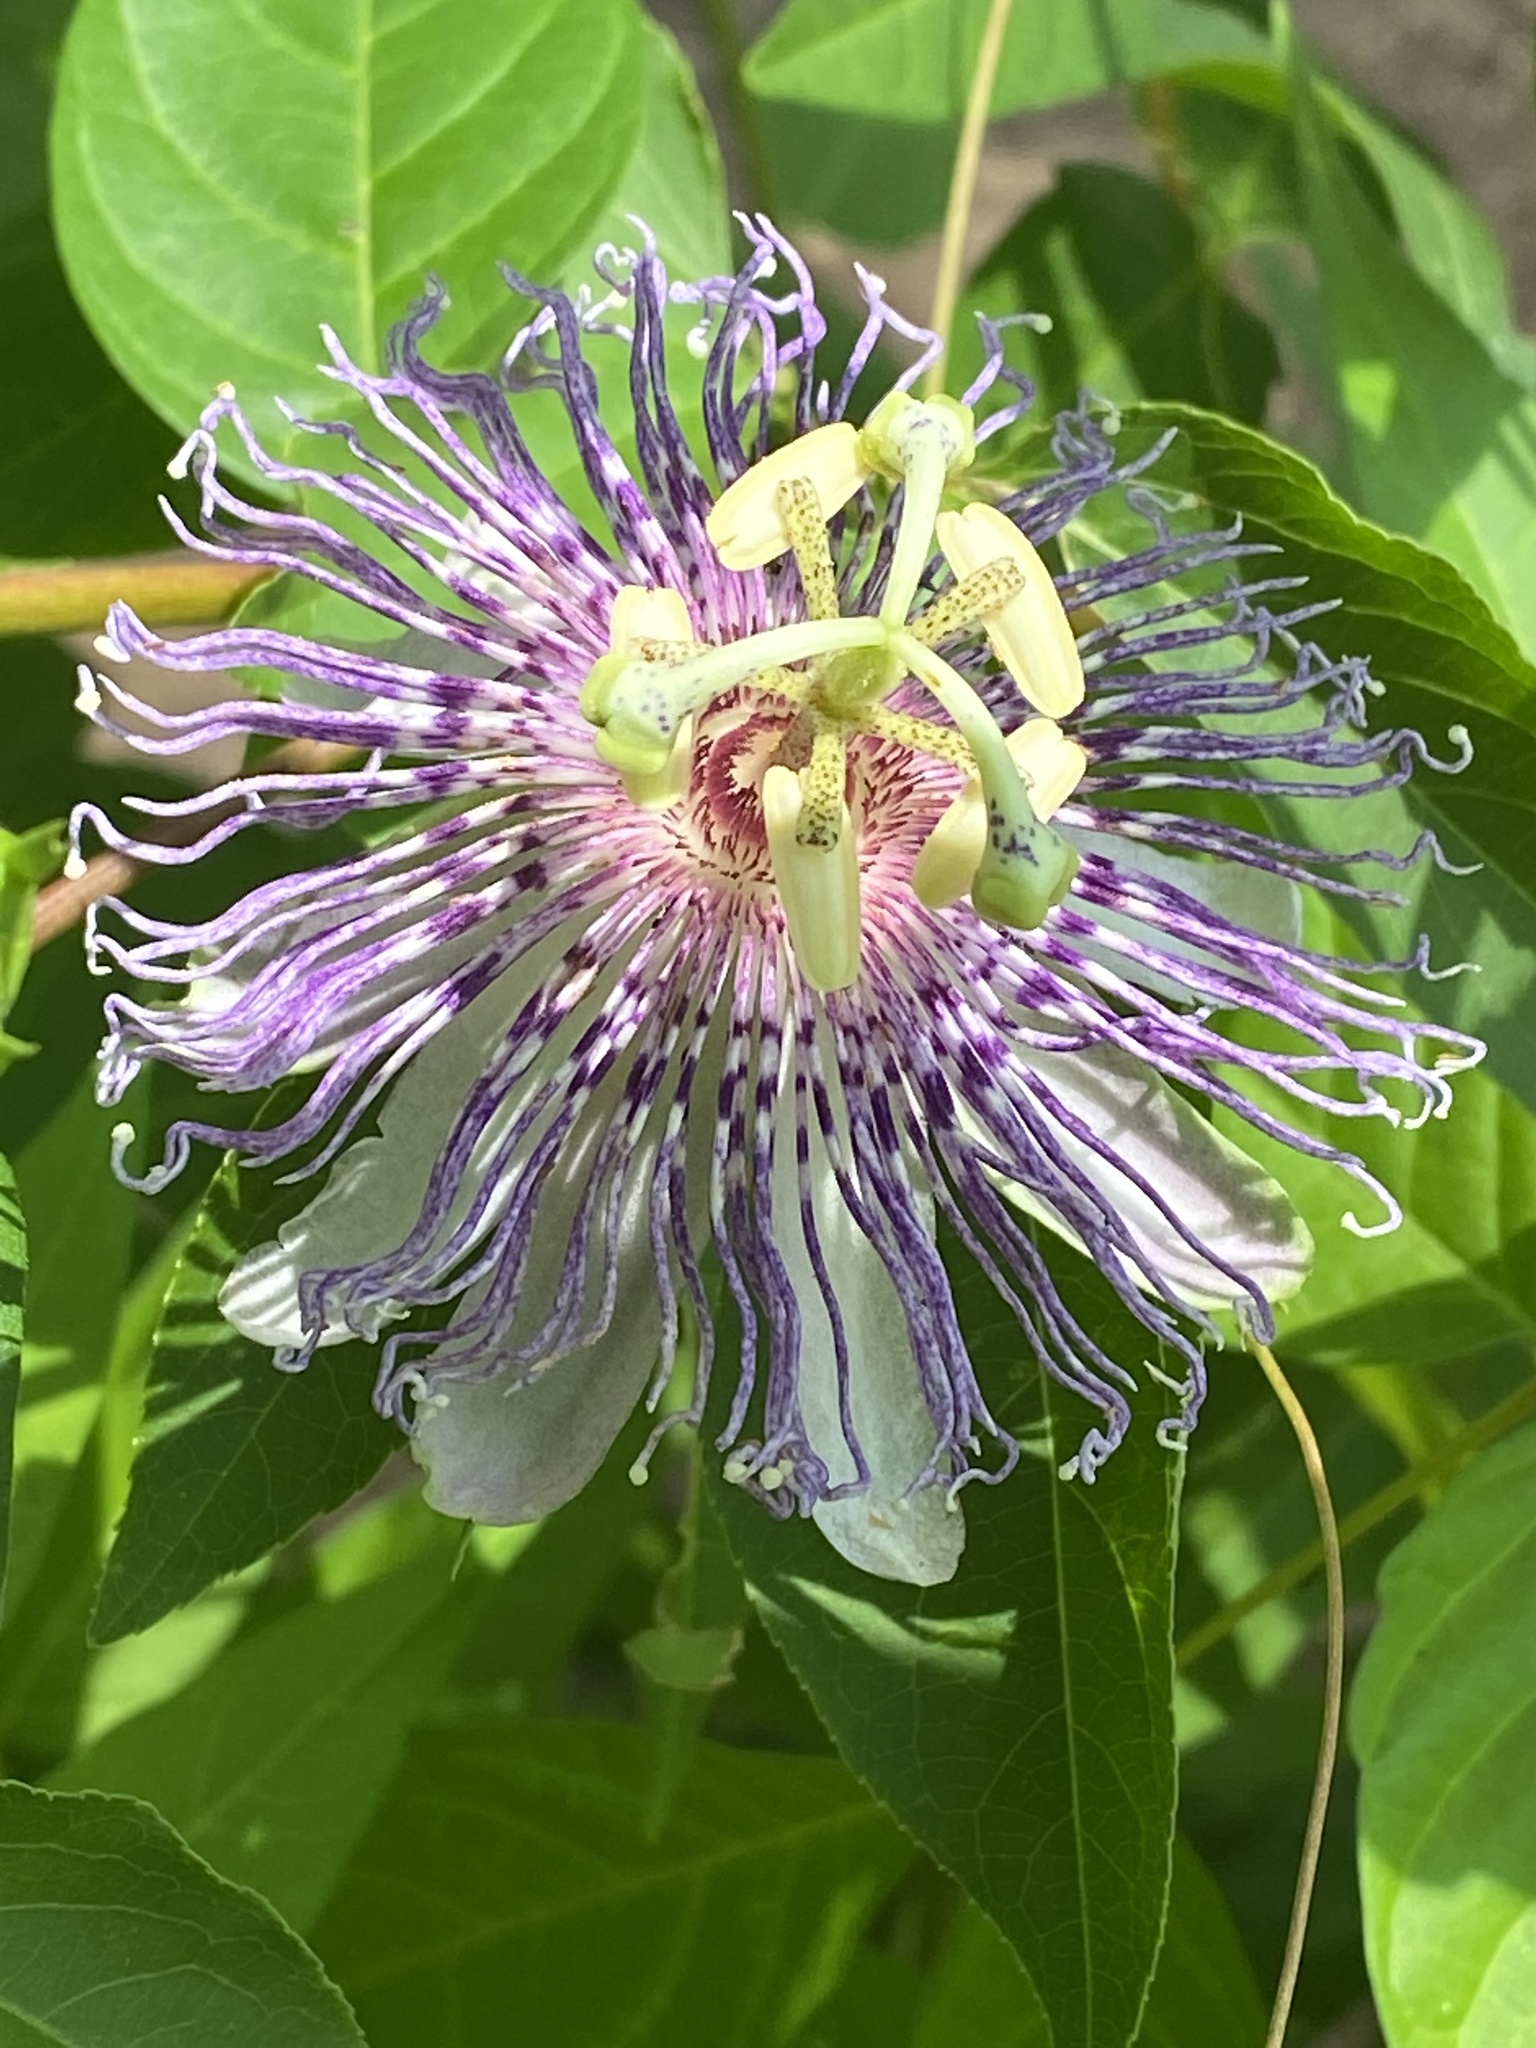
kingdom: Plantae
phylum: Tracheophyta
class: Magnoliopsida
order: Malpighiales
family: Passifloraceae
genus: Passiflora
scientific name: Passiflora incarnata
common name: Apricot-vine
